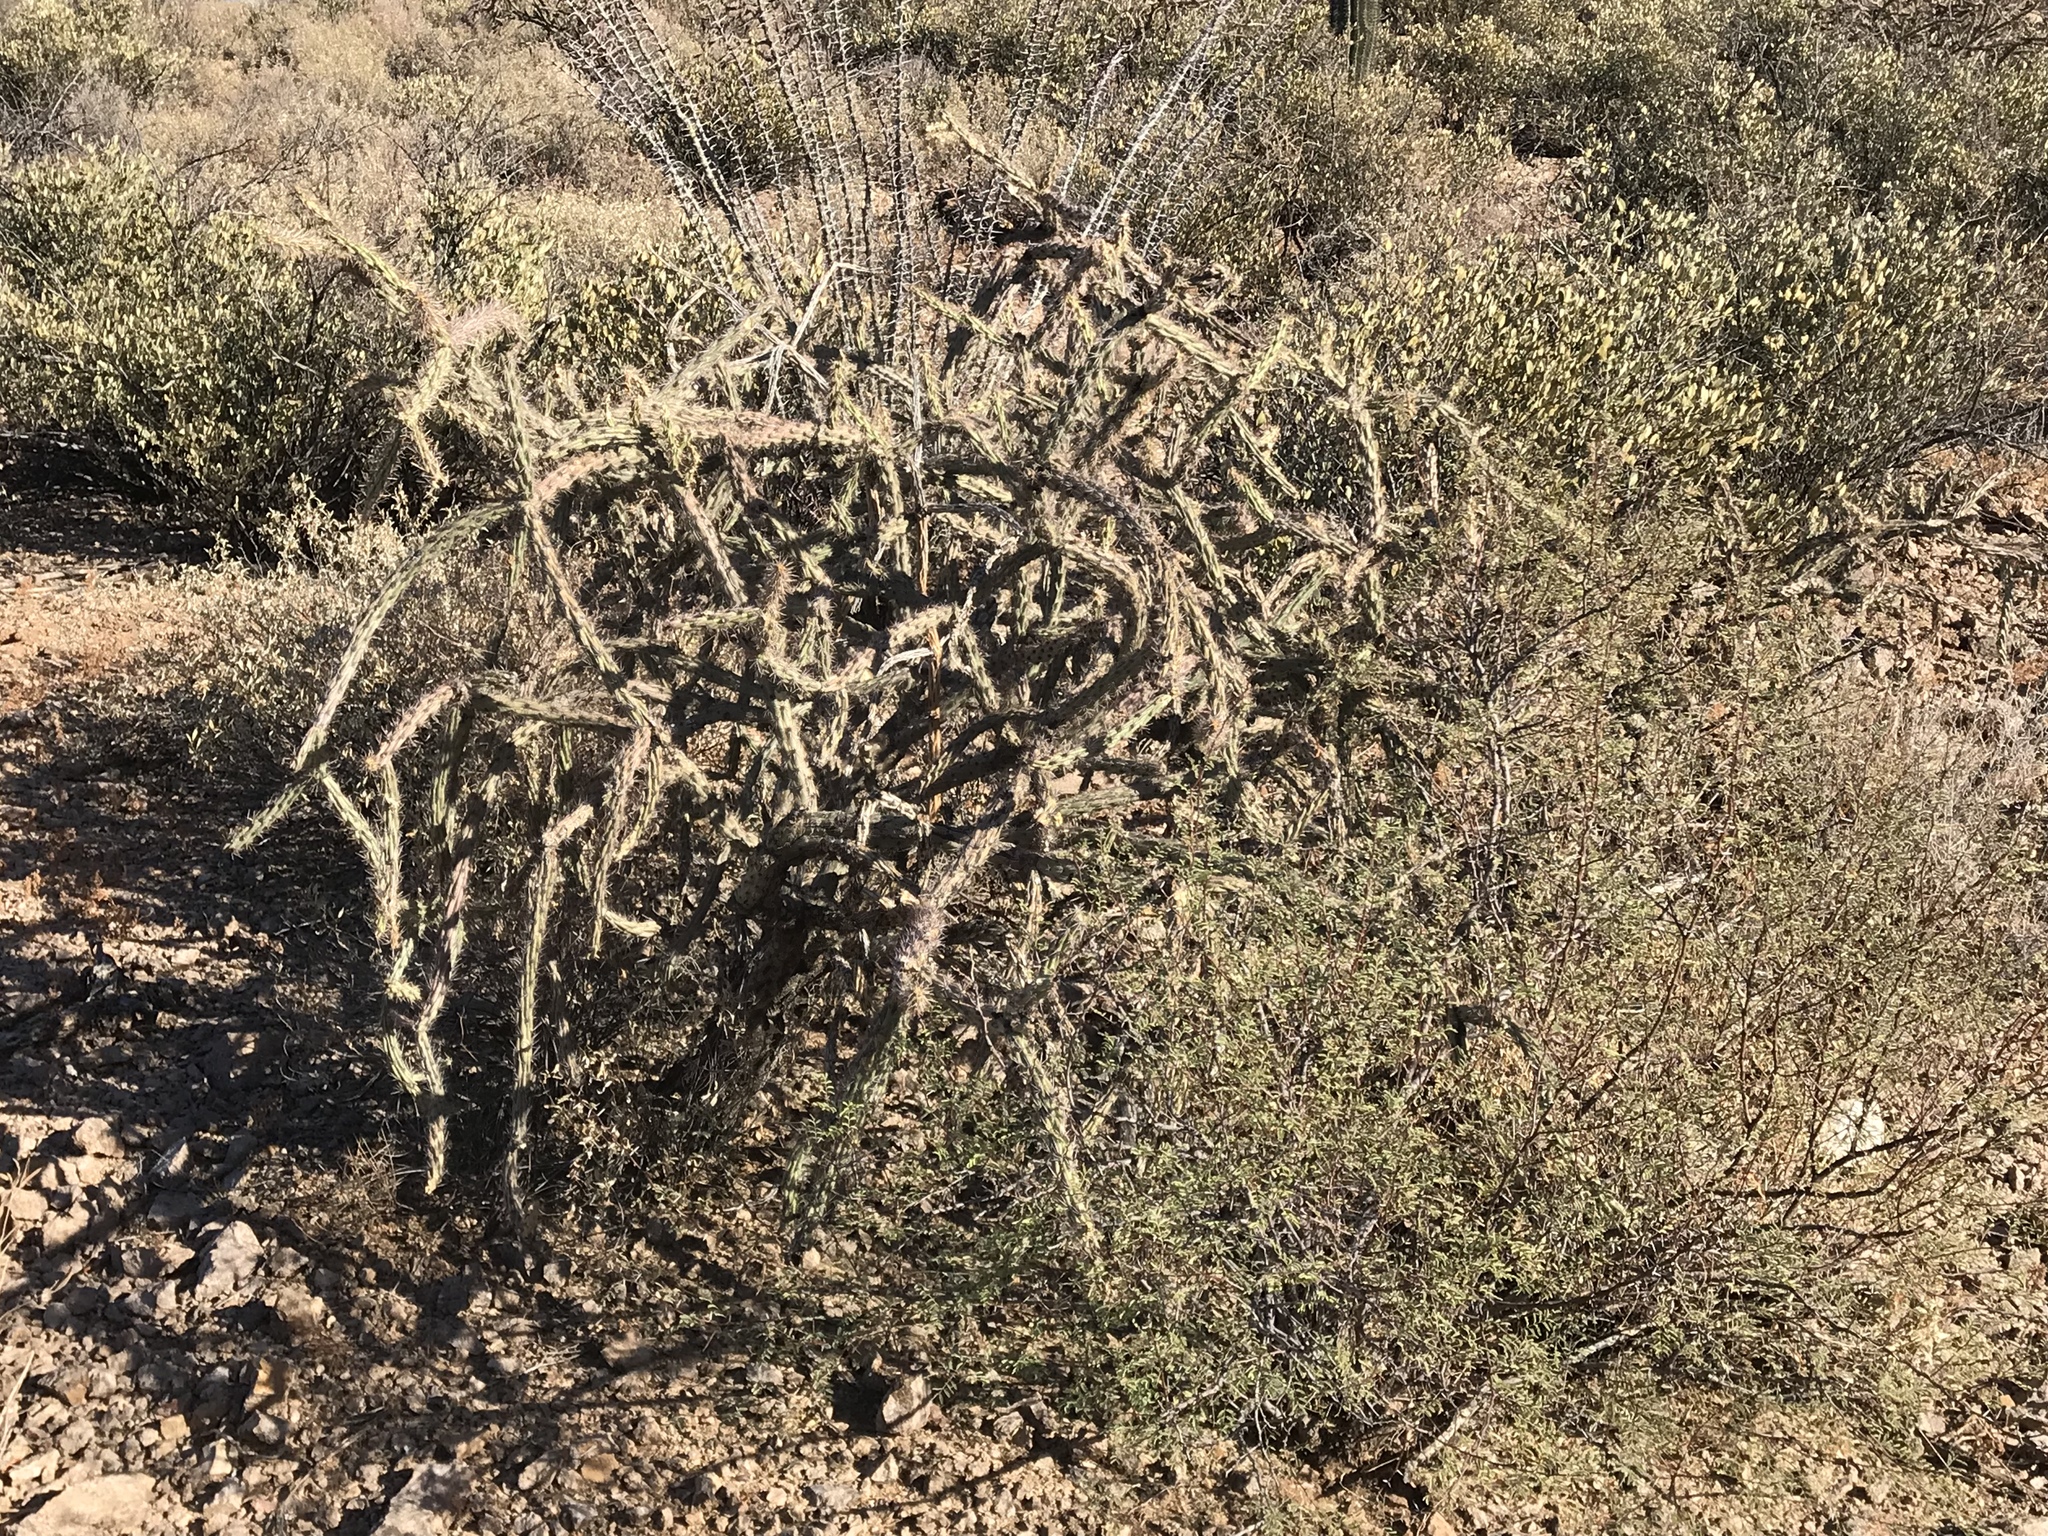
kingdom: Plantae
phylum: Tracheophyta
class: Magnoliopsida
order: Caryophyllales
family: Cactaceae
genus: Cylindropuntia
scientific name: Cylindropuntia acanthocarpa
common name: Buckhorn cholla
